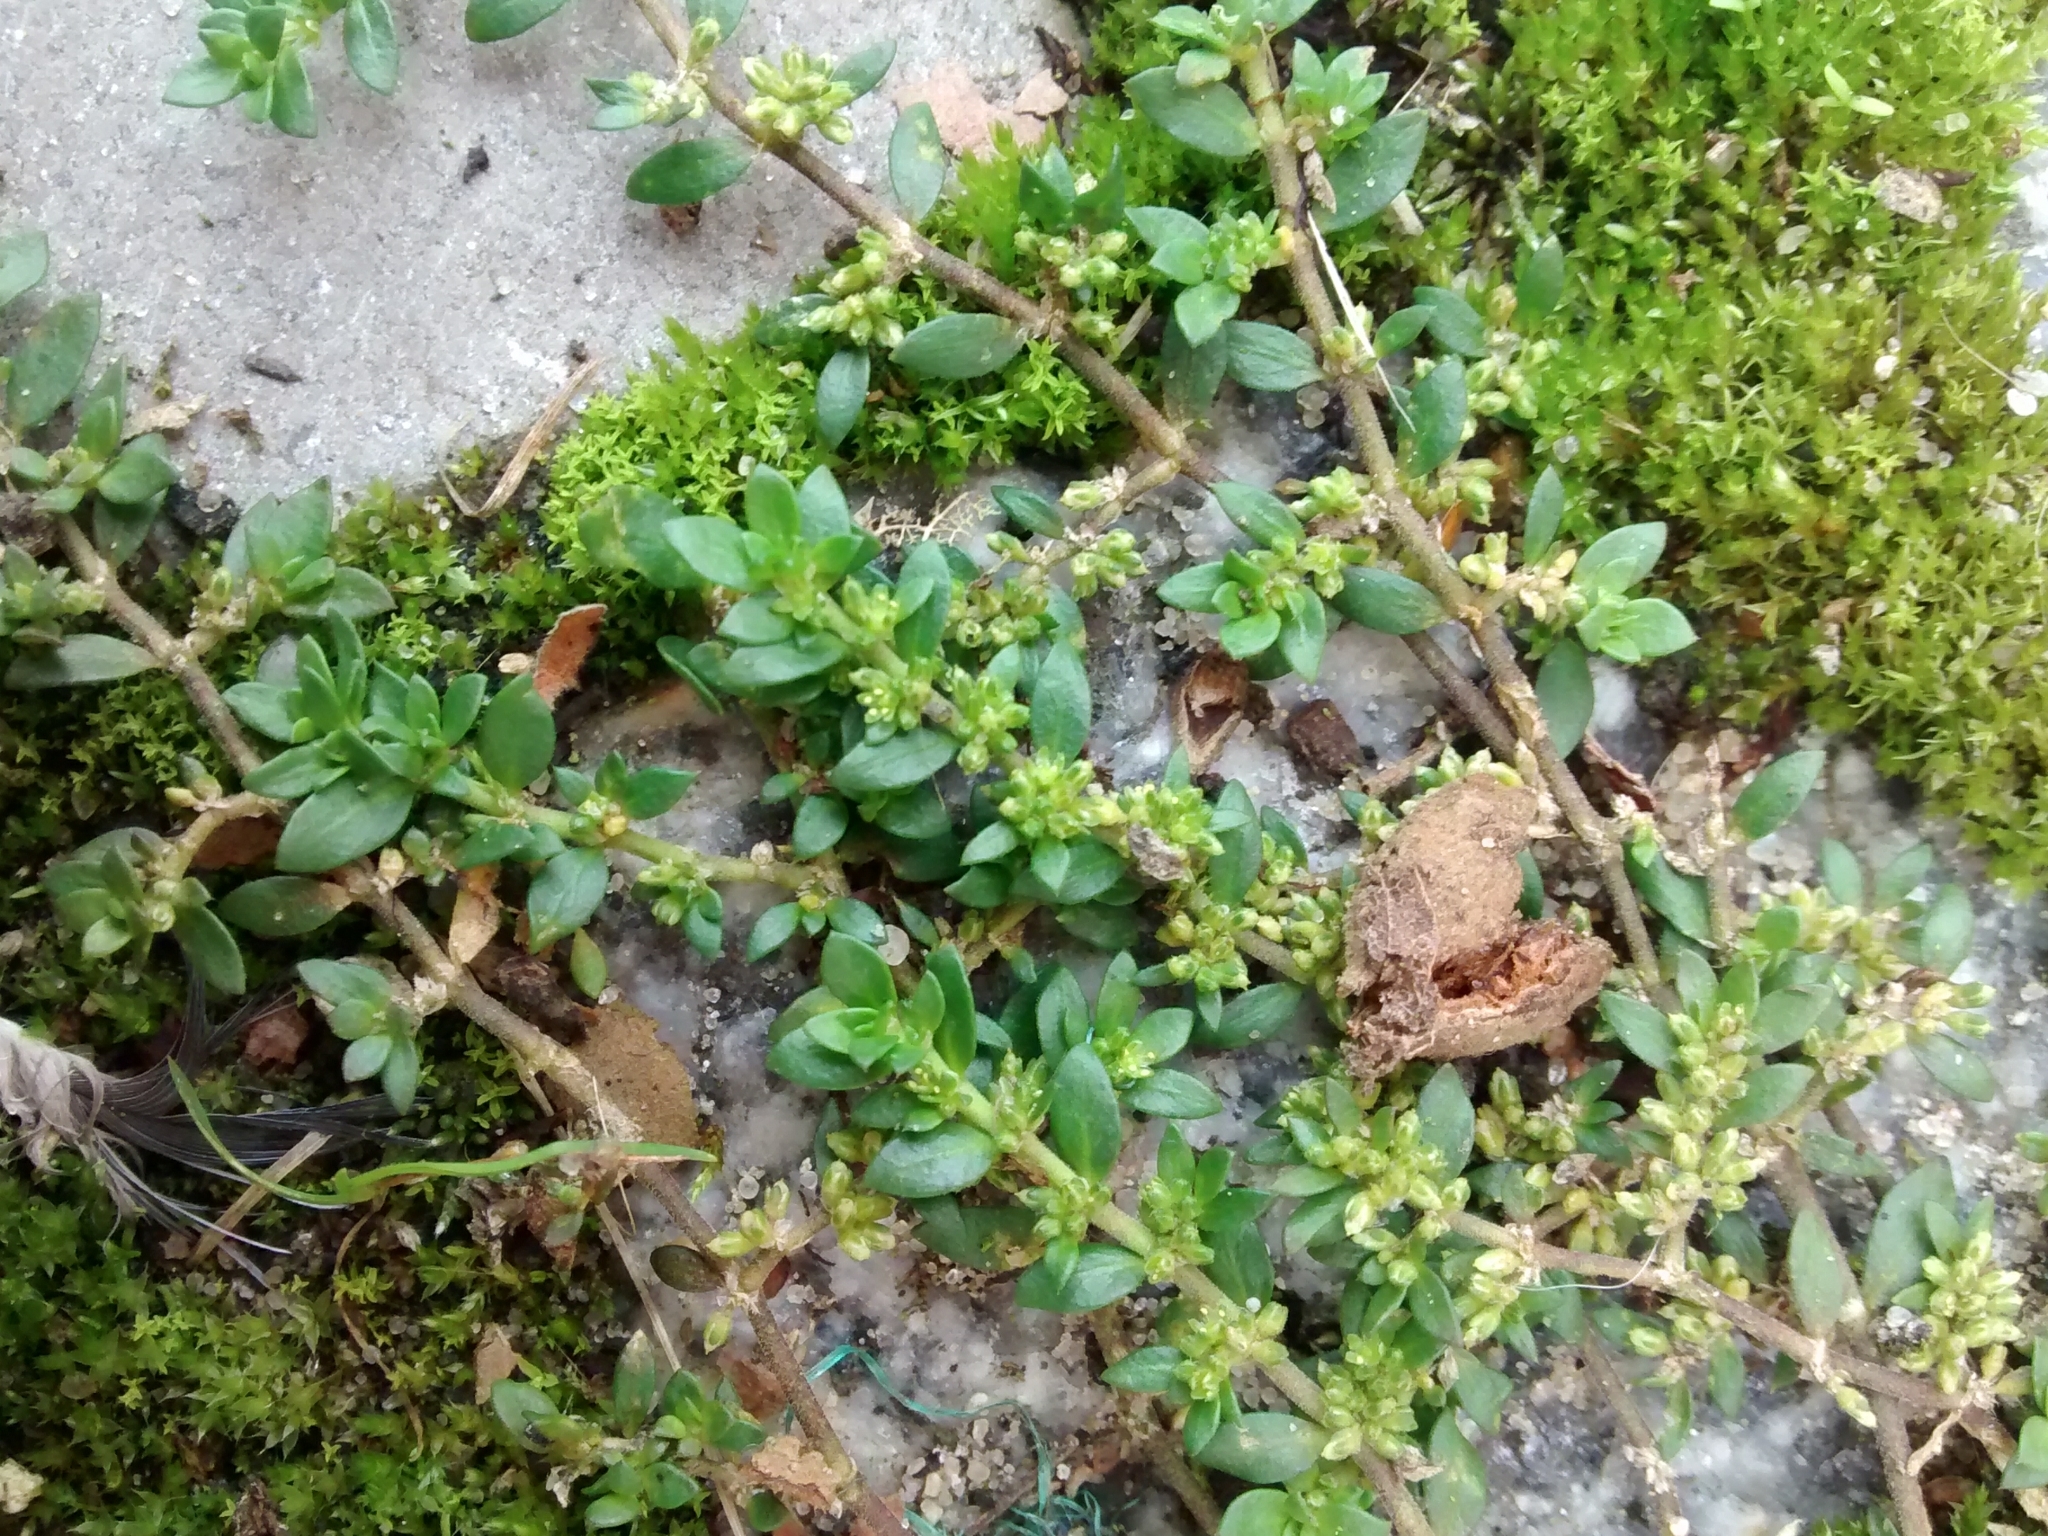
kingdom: Plantae
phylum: Tracheophyta
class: Magnoliopsida
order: Caryophyllales
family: Caryophyllaceae
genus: Herniaria
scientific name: Herniaria glabra
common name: Smooth rupturewort
